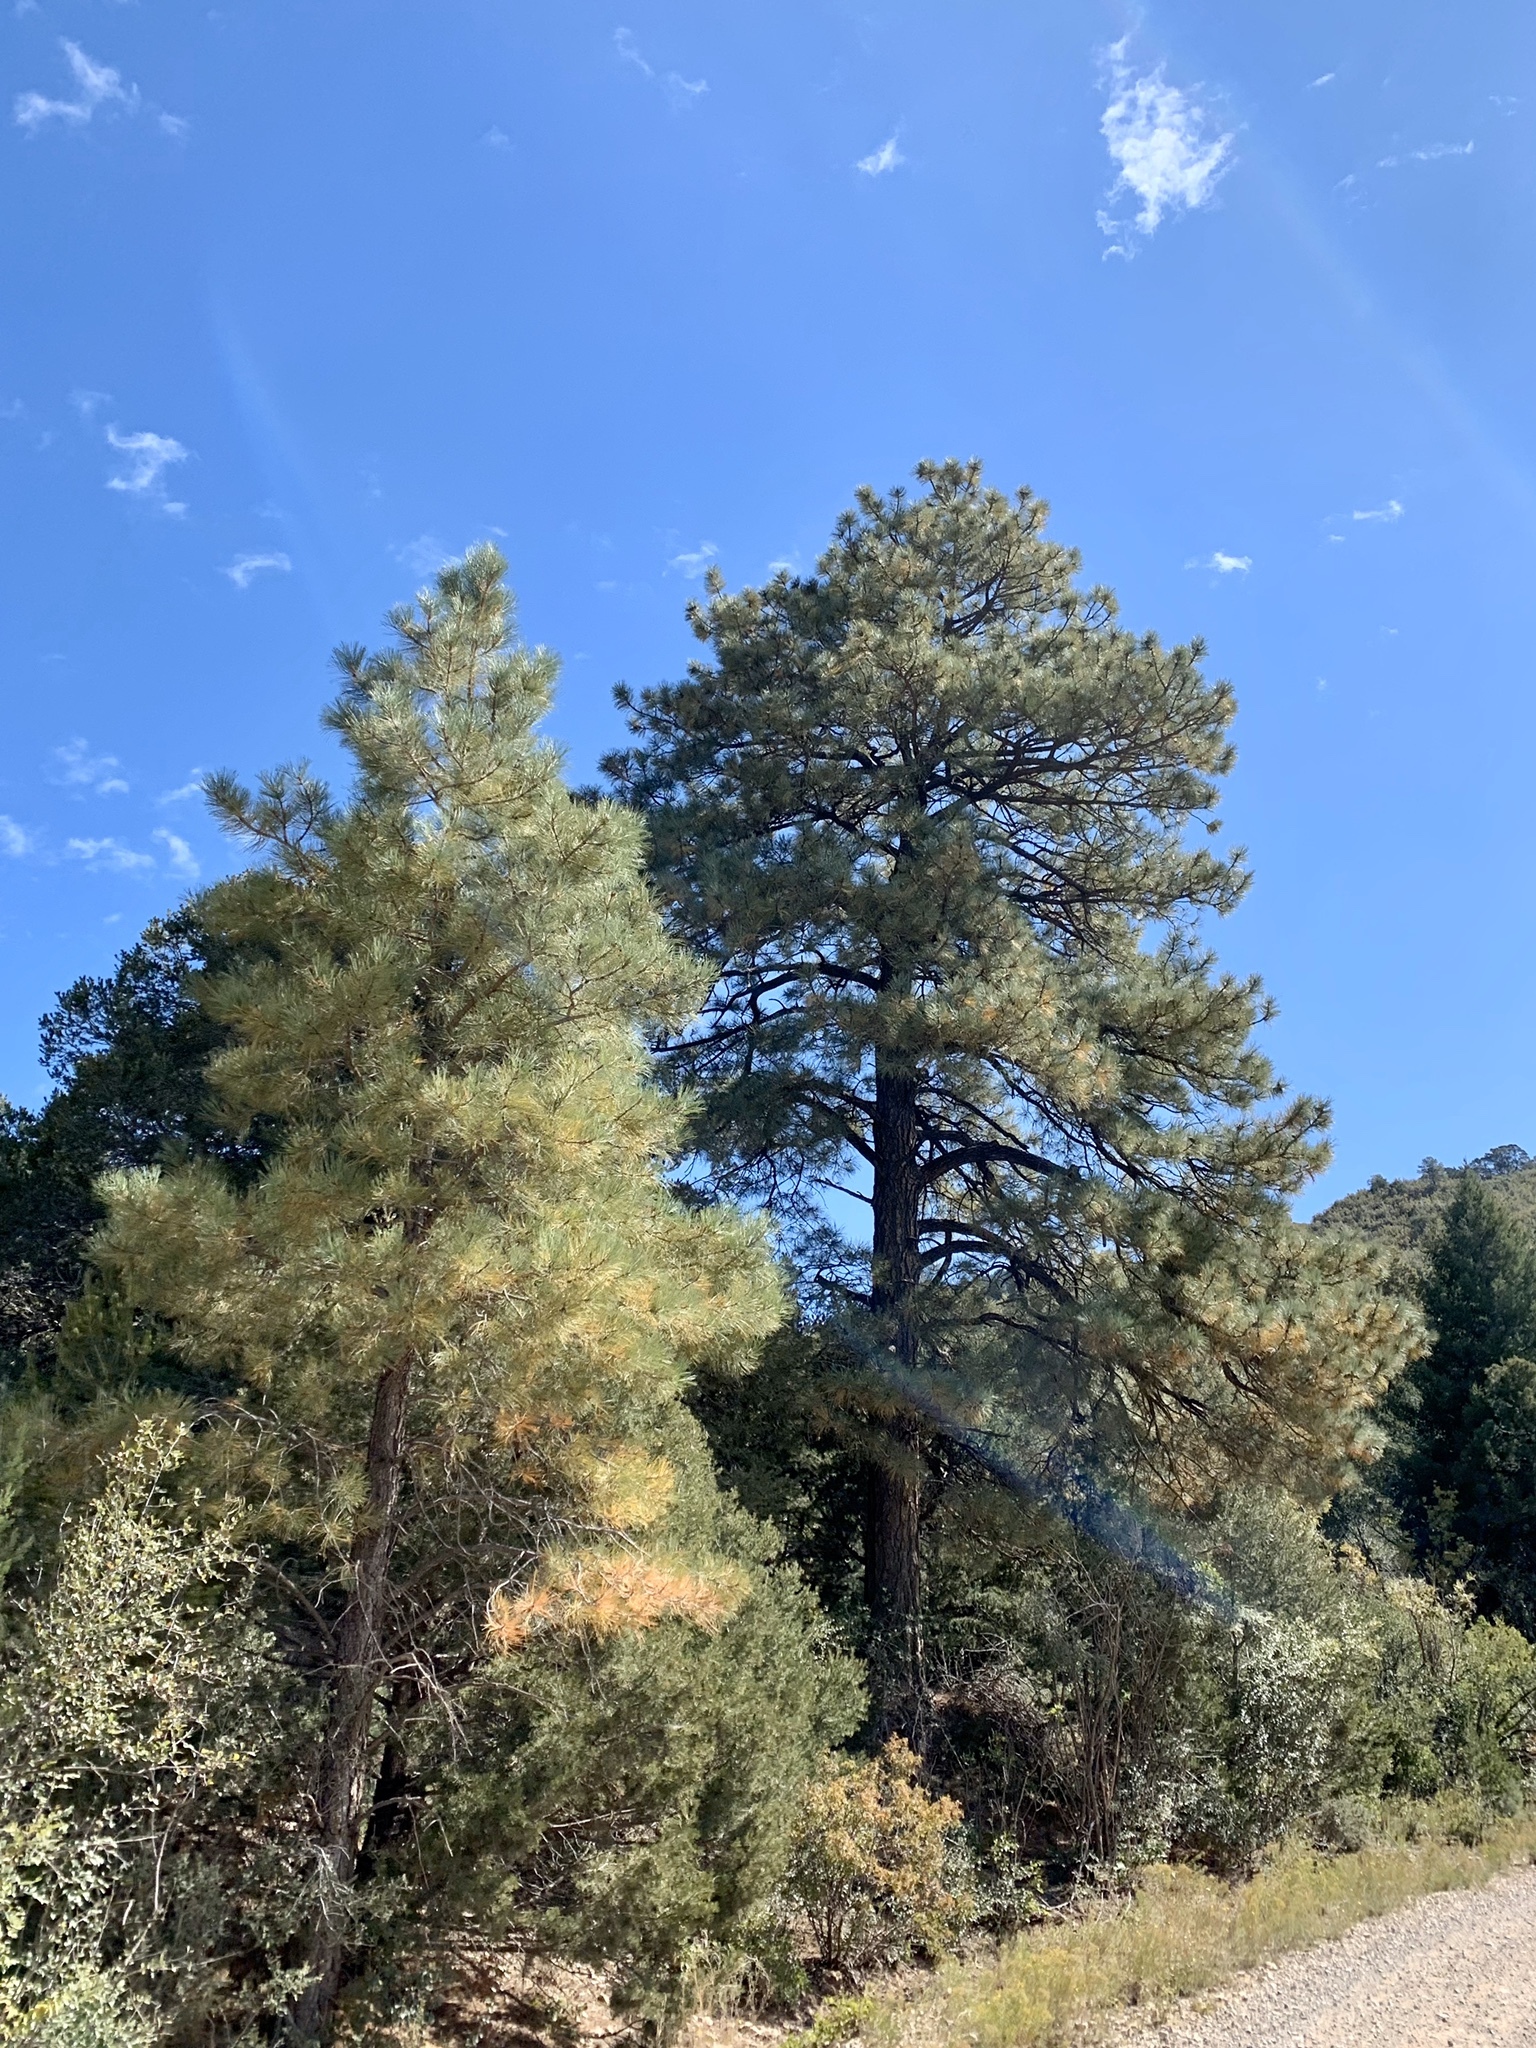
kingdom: Plantae
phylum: Tracheophyta
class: Pinopsida
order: Pinales
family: Pinaceae
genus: Pinus
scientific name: Pinus ponderosa
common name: Western yellow-pine
